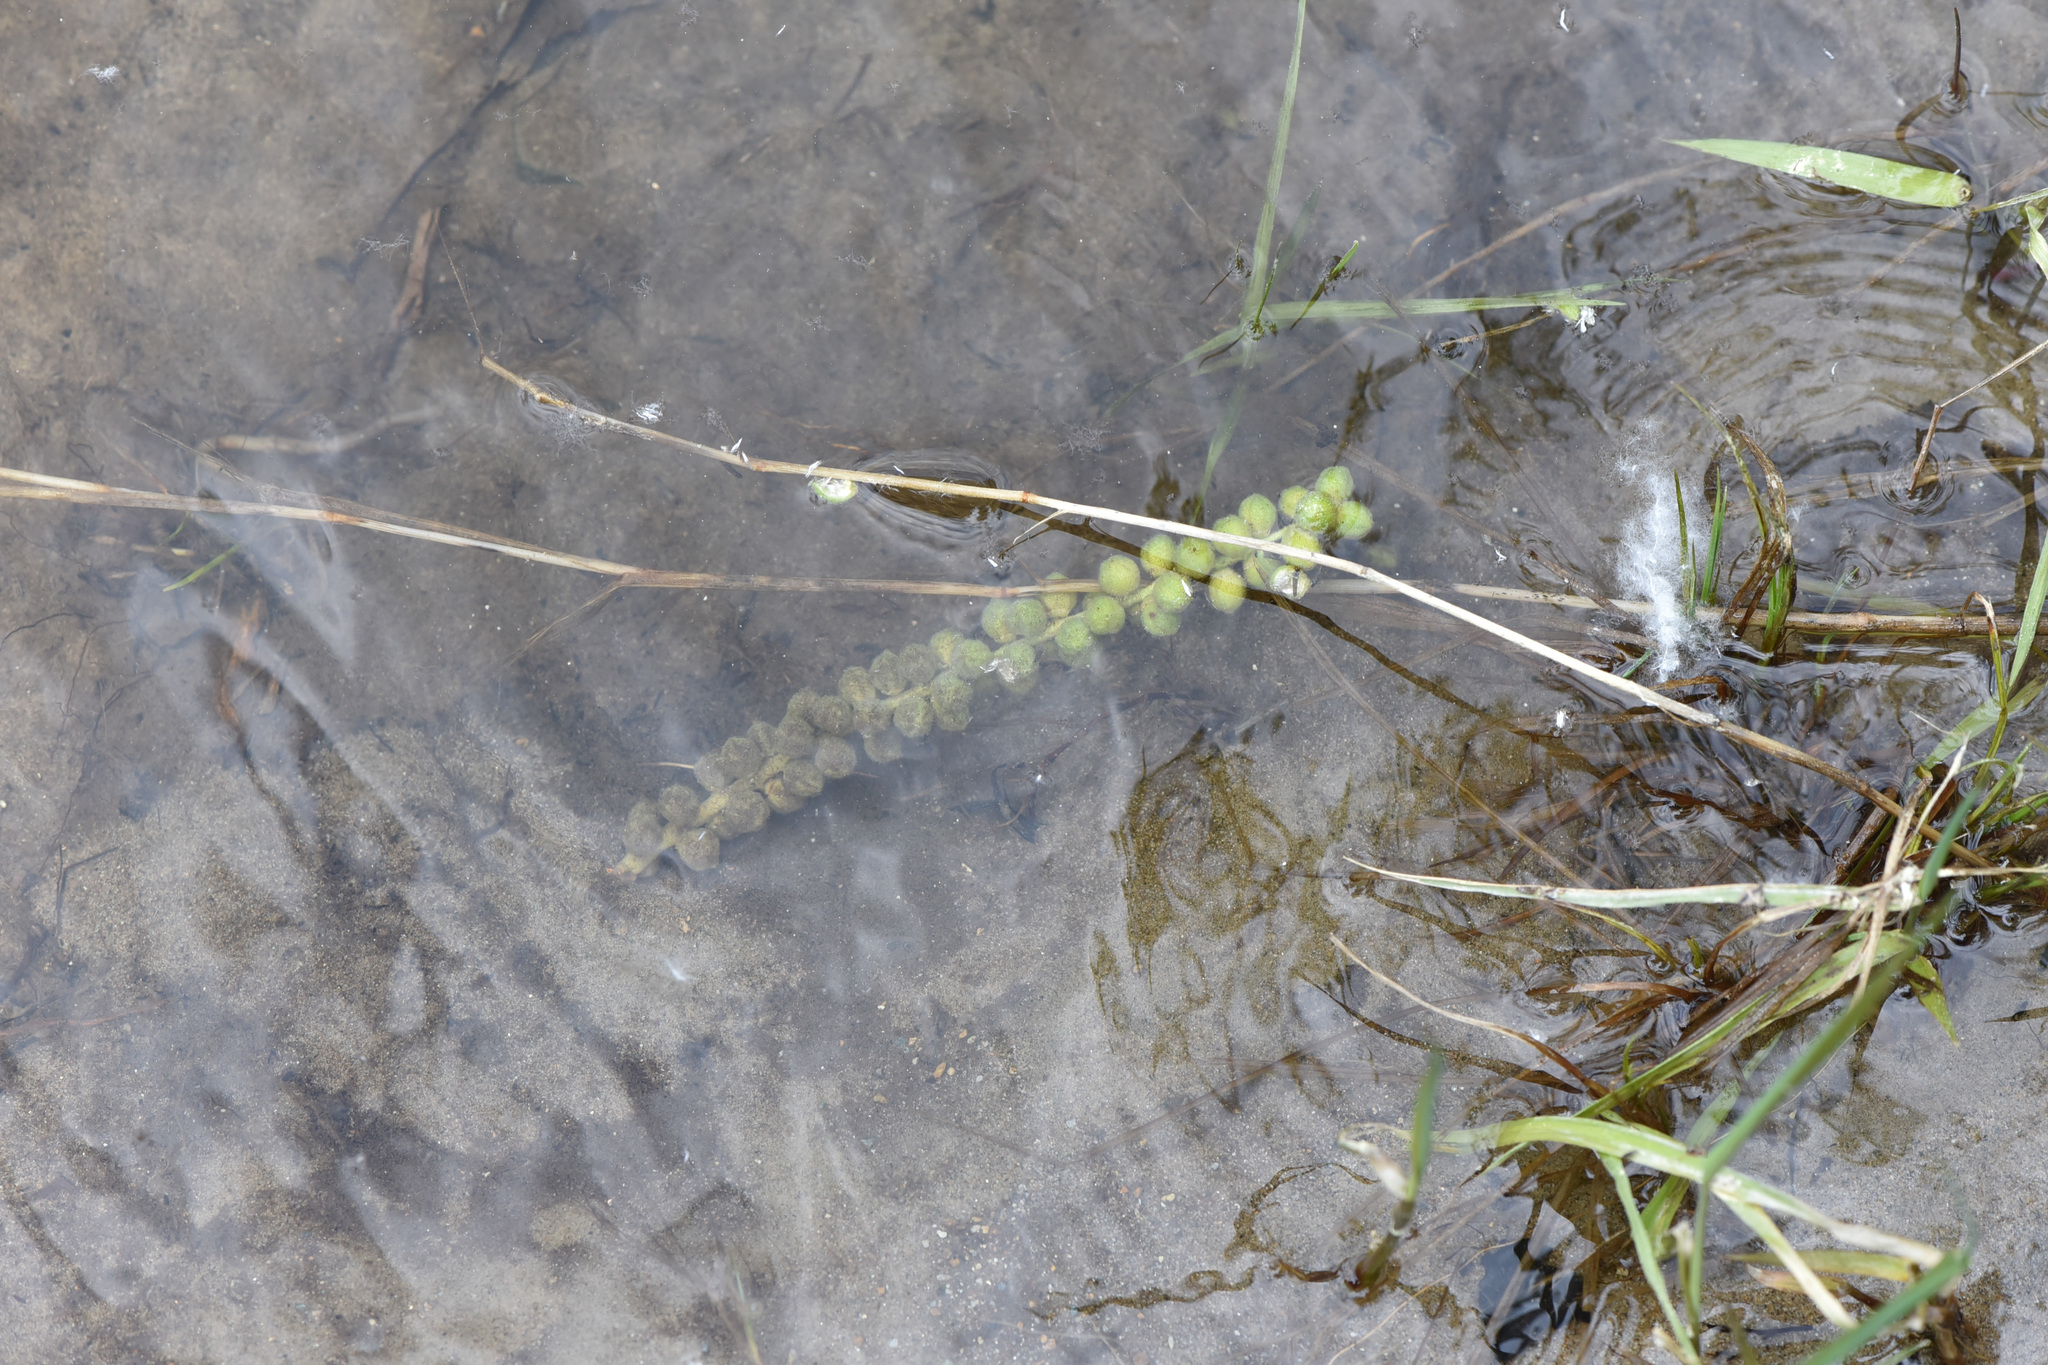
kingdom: Plantae
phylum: Tracheophyta
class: Magnoliopsida
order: Malpighiales
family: Salicaceae
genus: Populus
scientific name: Populus trichocarpa
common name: Black cottonwood
